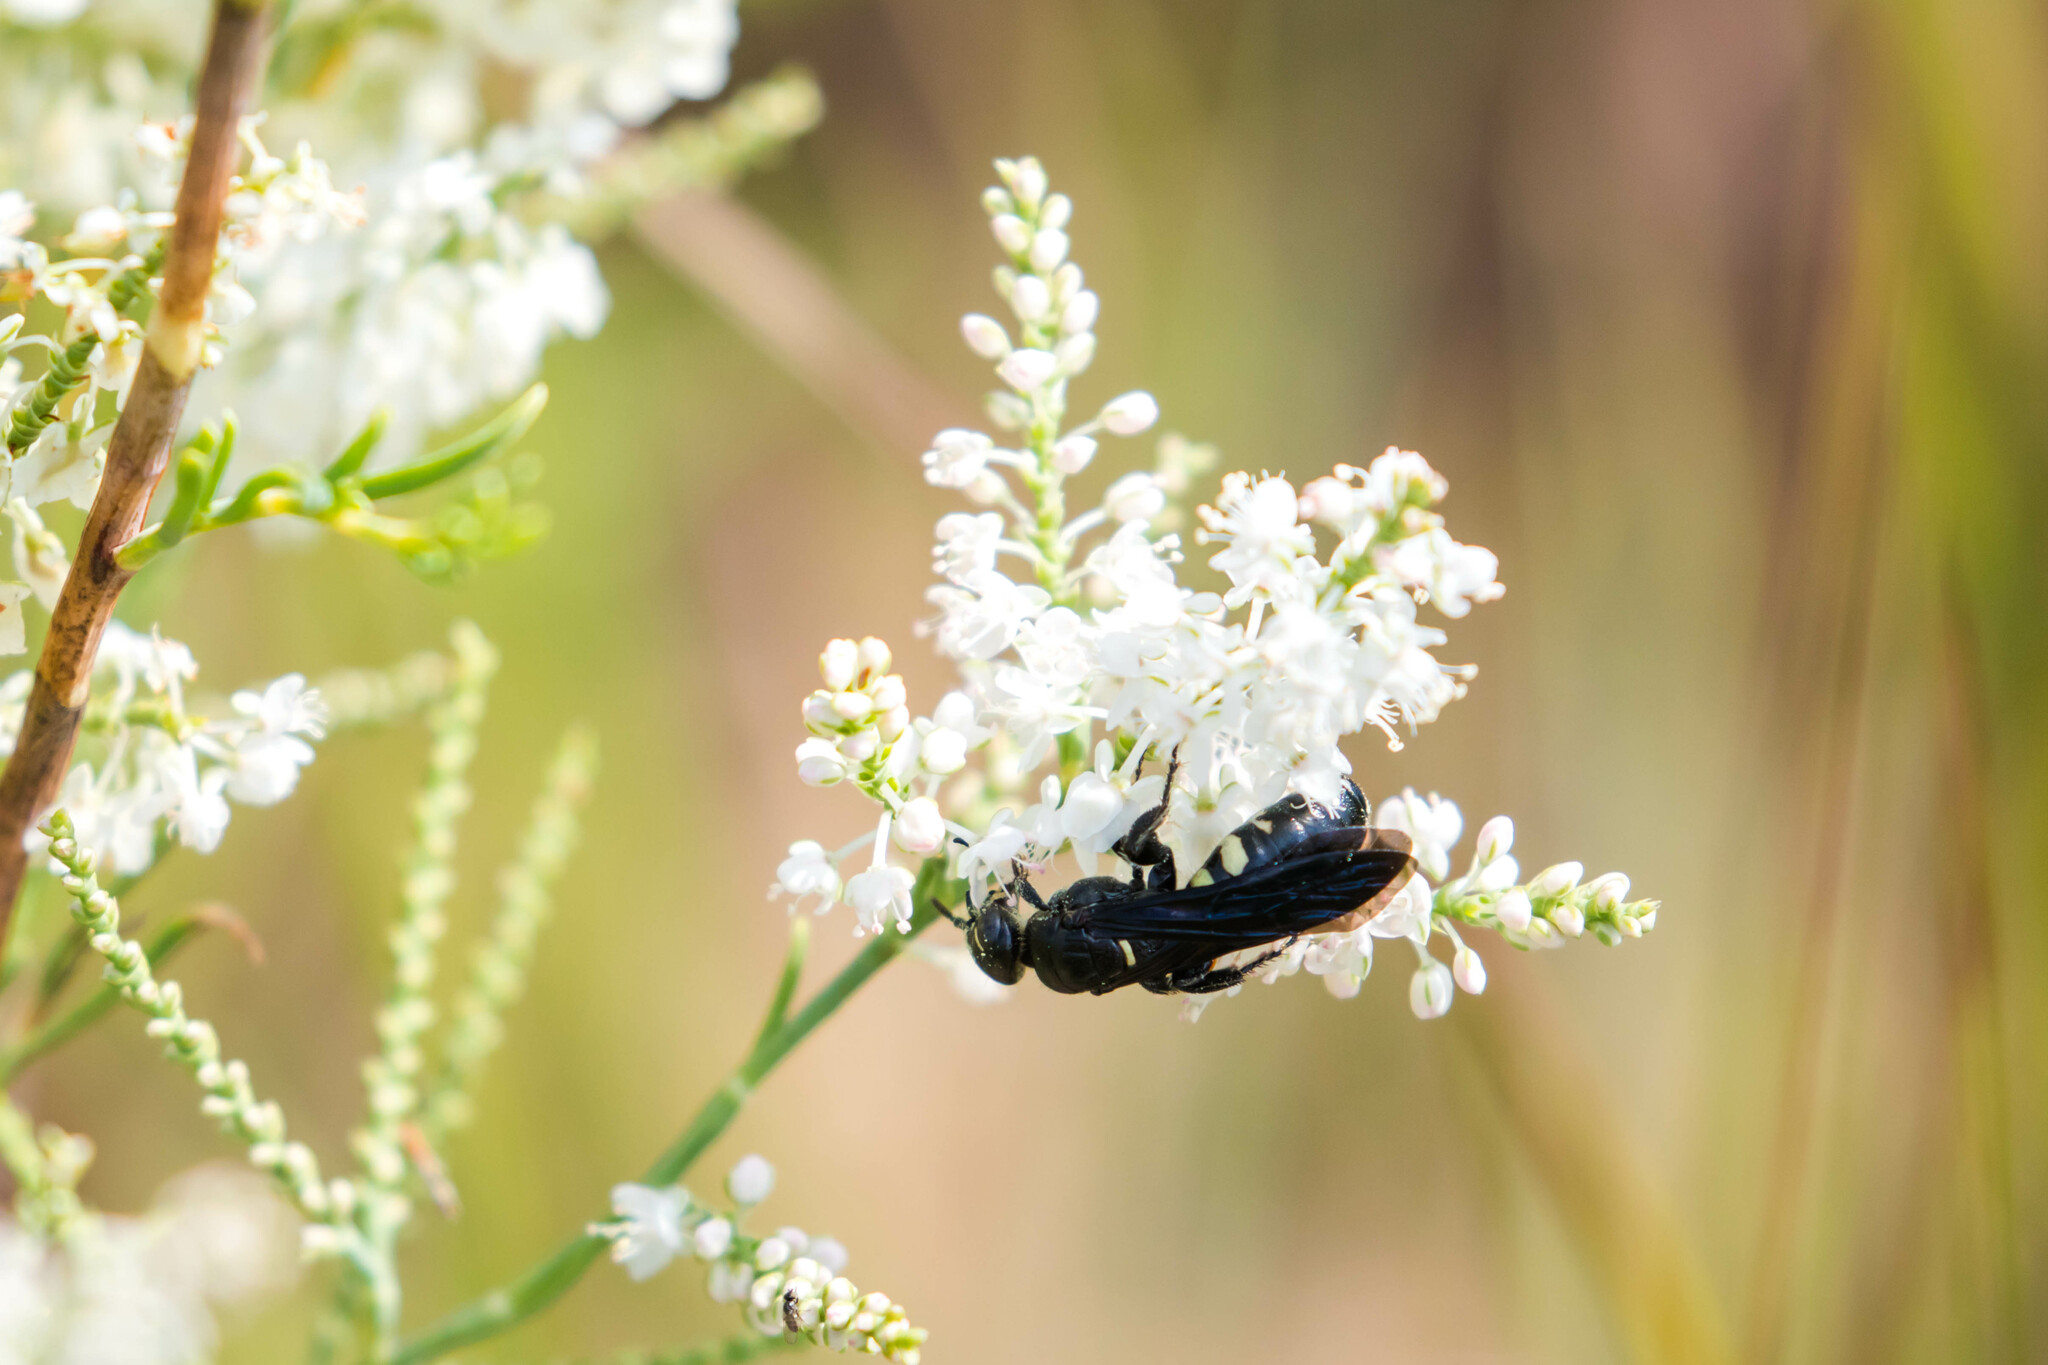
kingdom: Animalia
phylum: Arthropoda
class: Insecta
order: Hymenoptera
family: Tiphiidae
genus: Myzinum
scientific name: Myzinum obscurum
